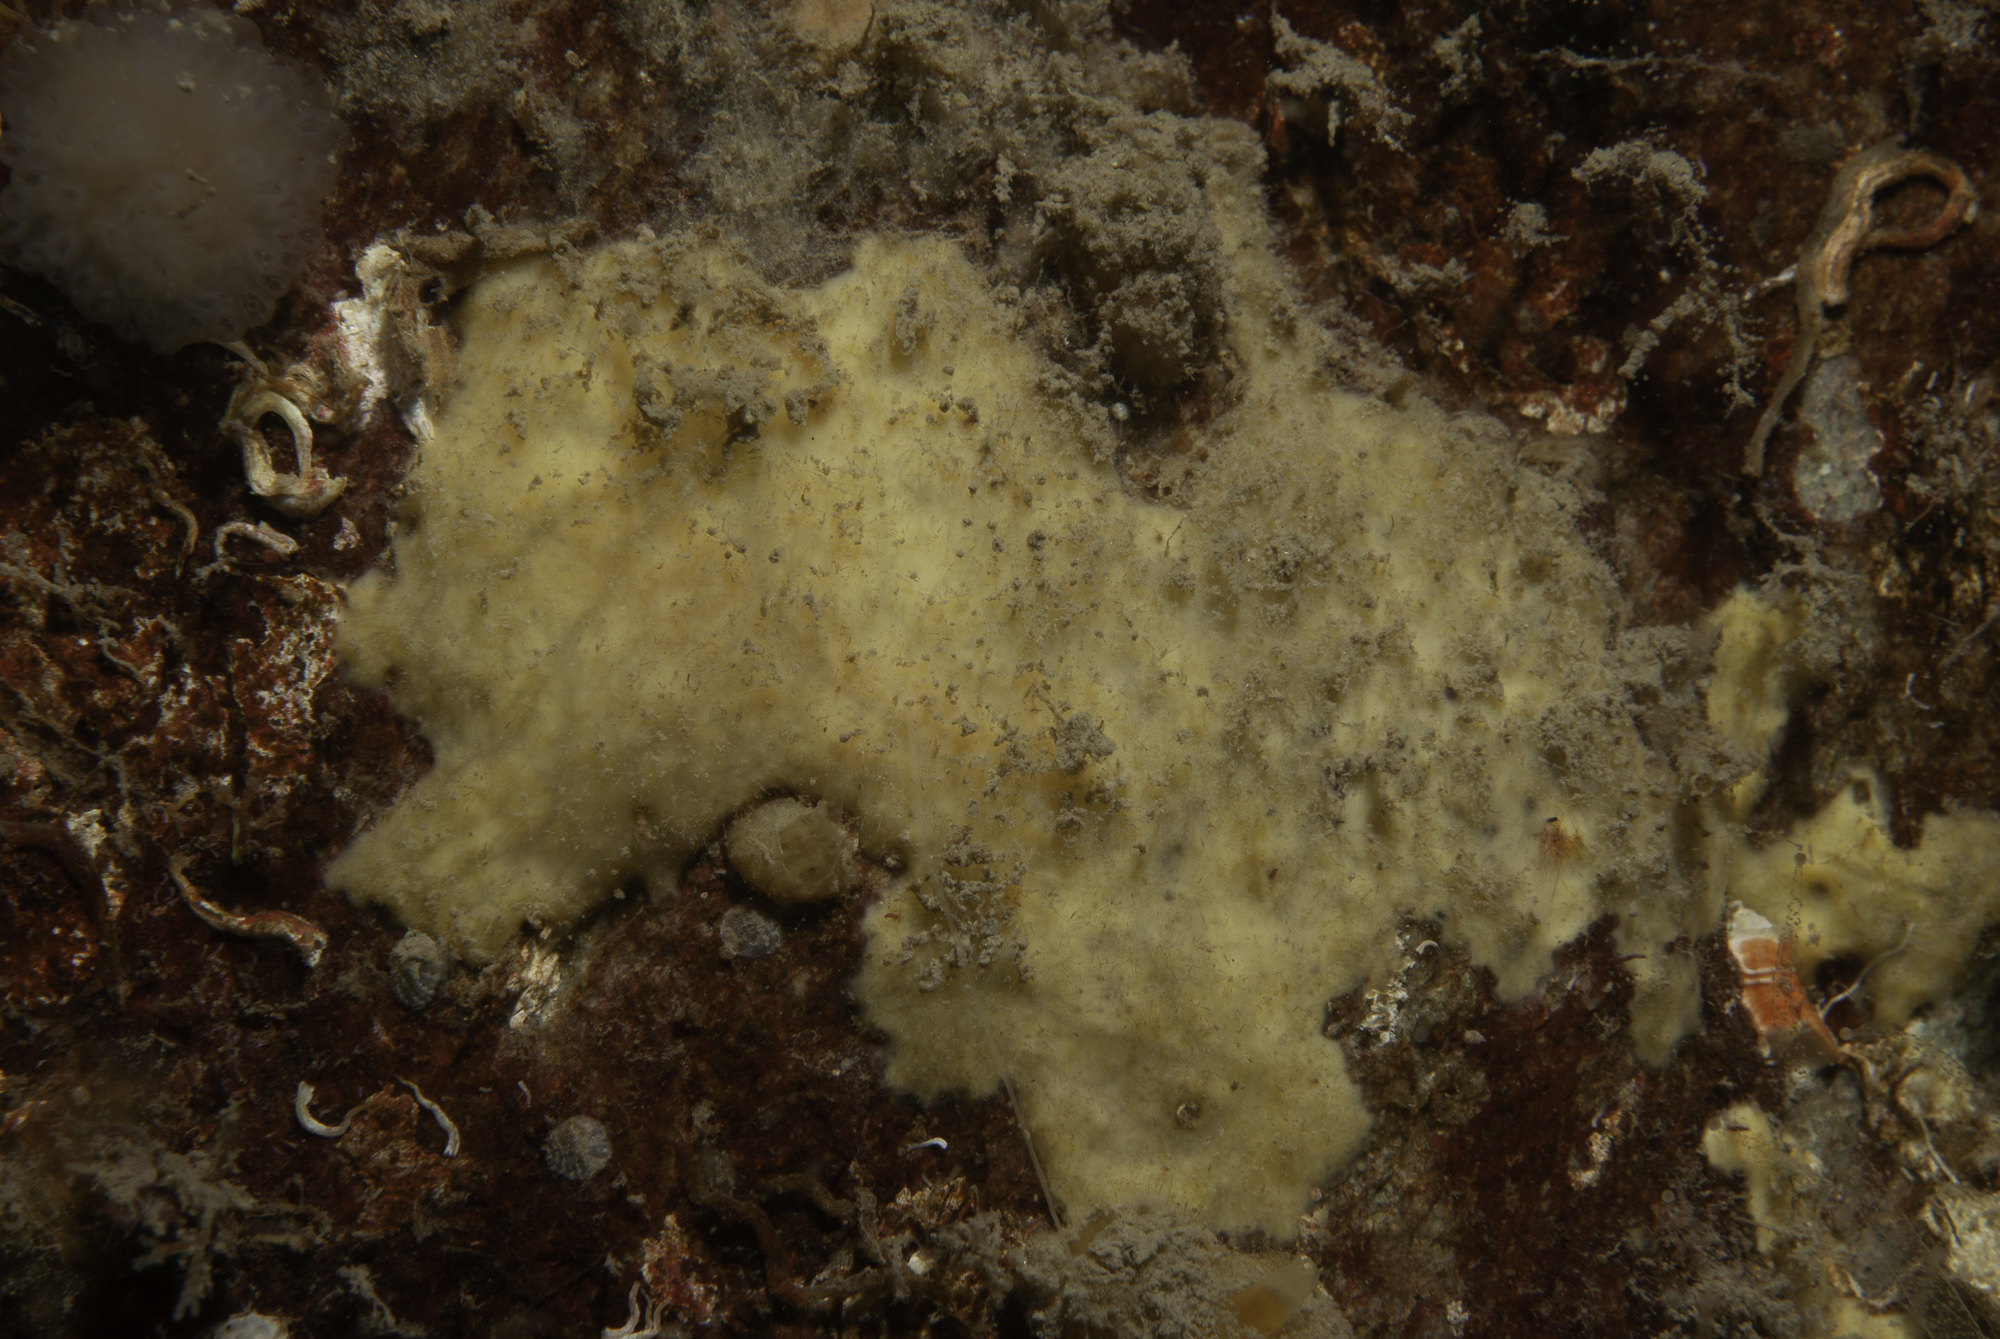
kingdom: Animalia
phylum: Porifera
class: Demospongiae
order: Axinellida
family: Stelligeridae
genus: Paratimea
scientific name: Paratimea loennbergi
